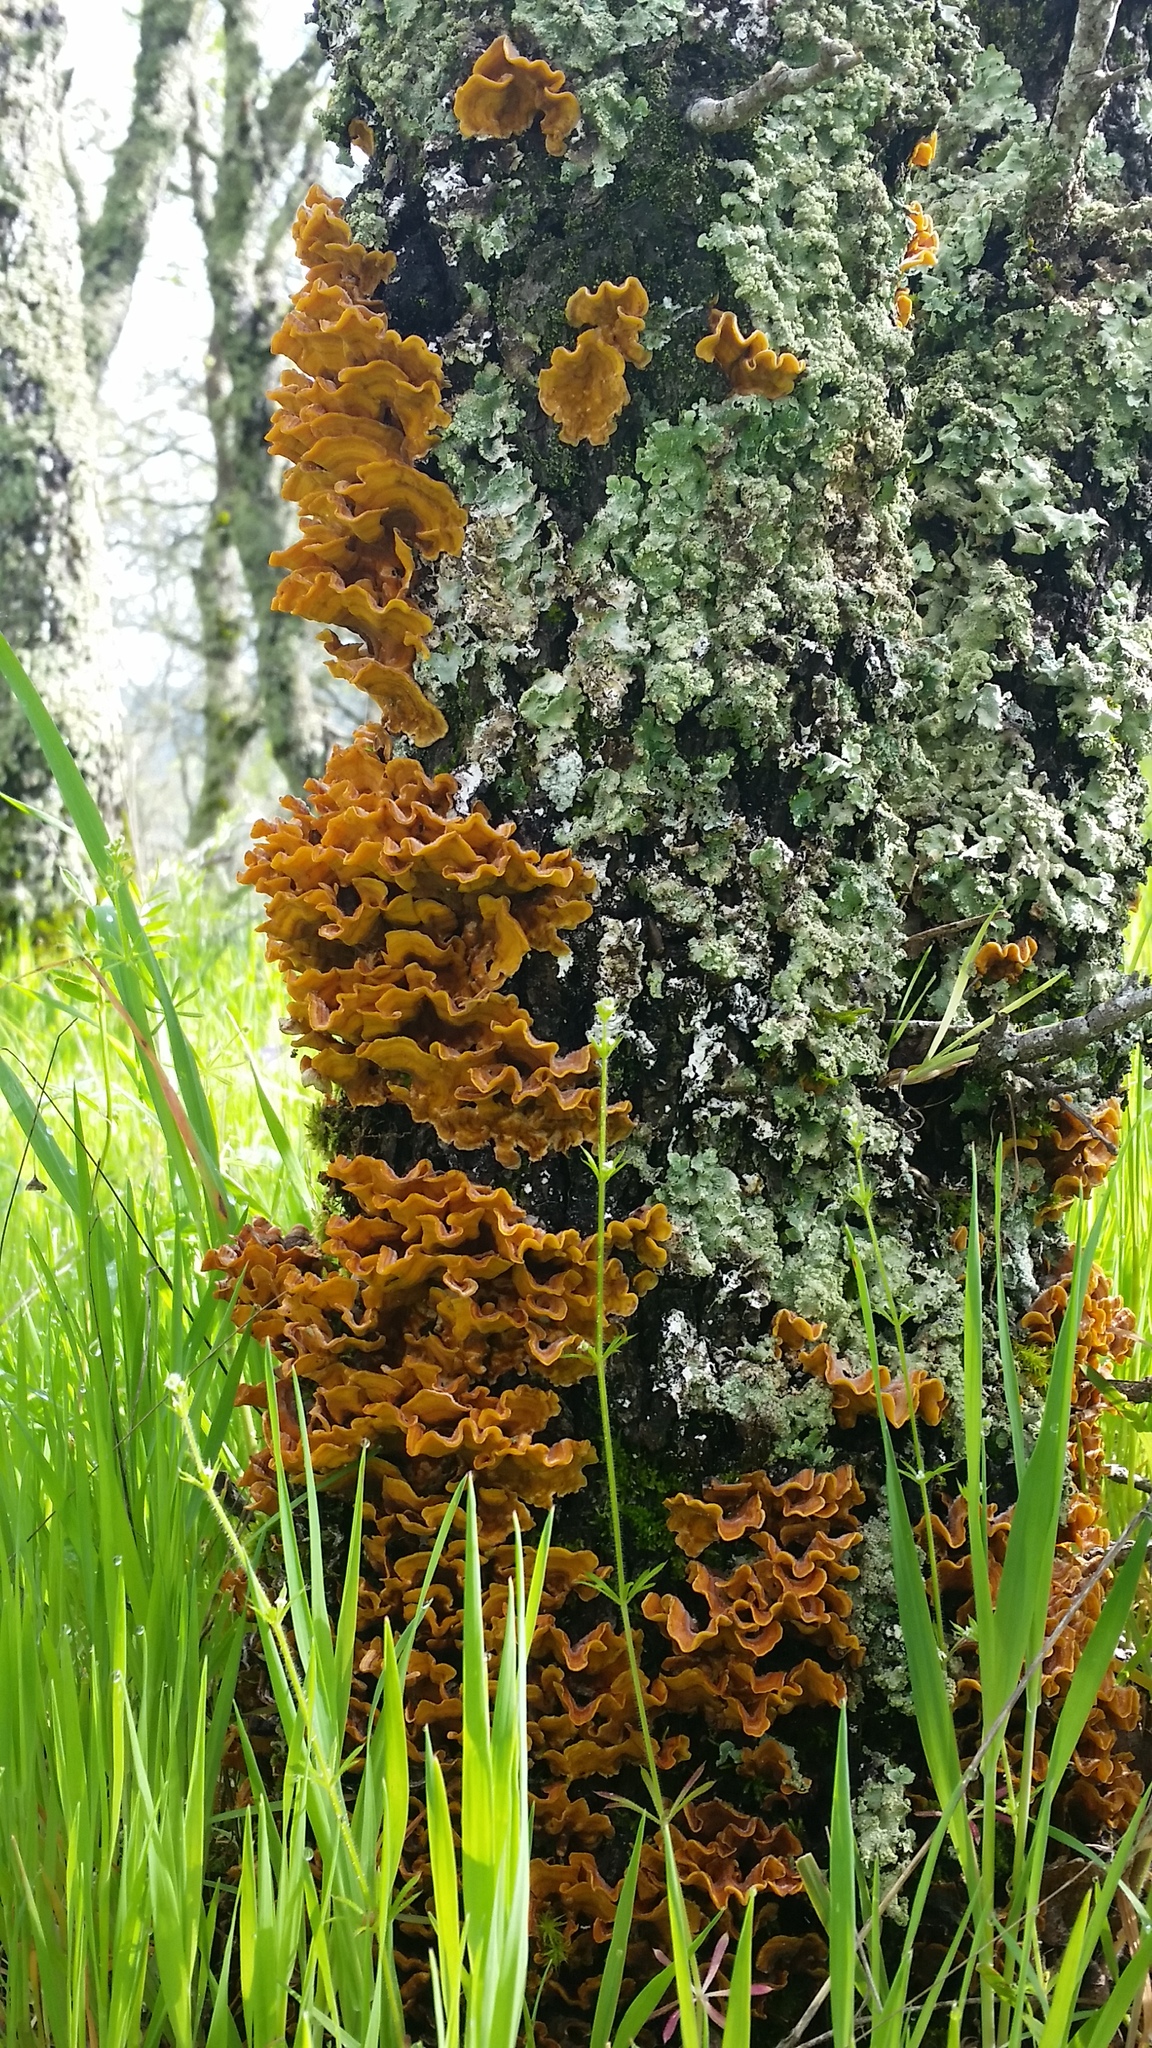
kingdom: Fungi
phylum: Basidiomycota
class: Agaricomycetes
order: Russulales
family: Stereaceae
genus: Stereum
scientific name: Stereum hirsutum
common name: Hairy curtain crust
